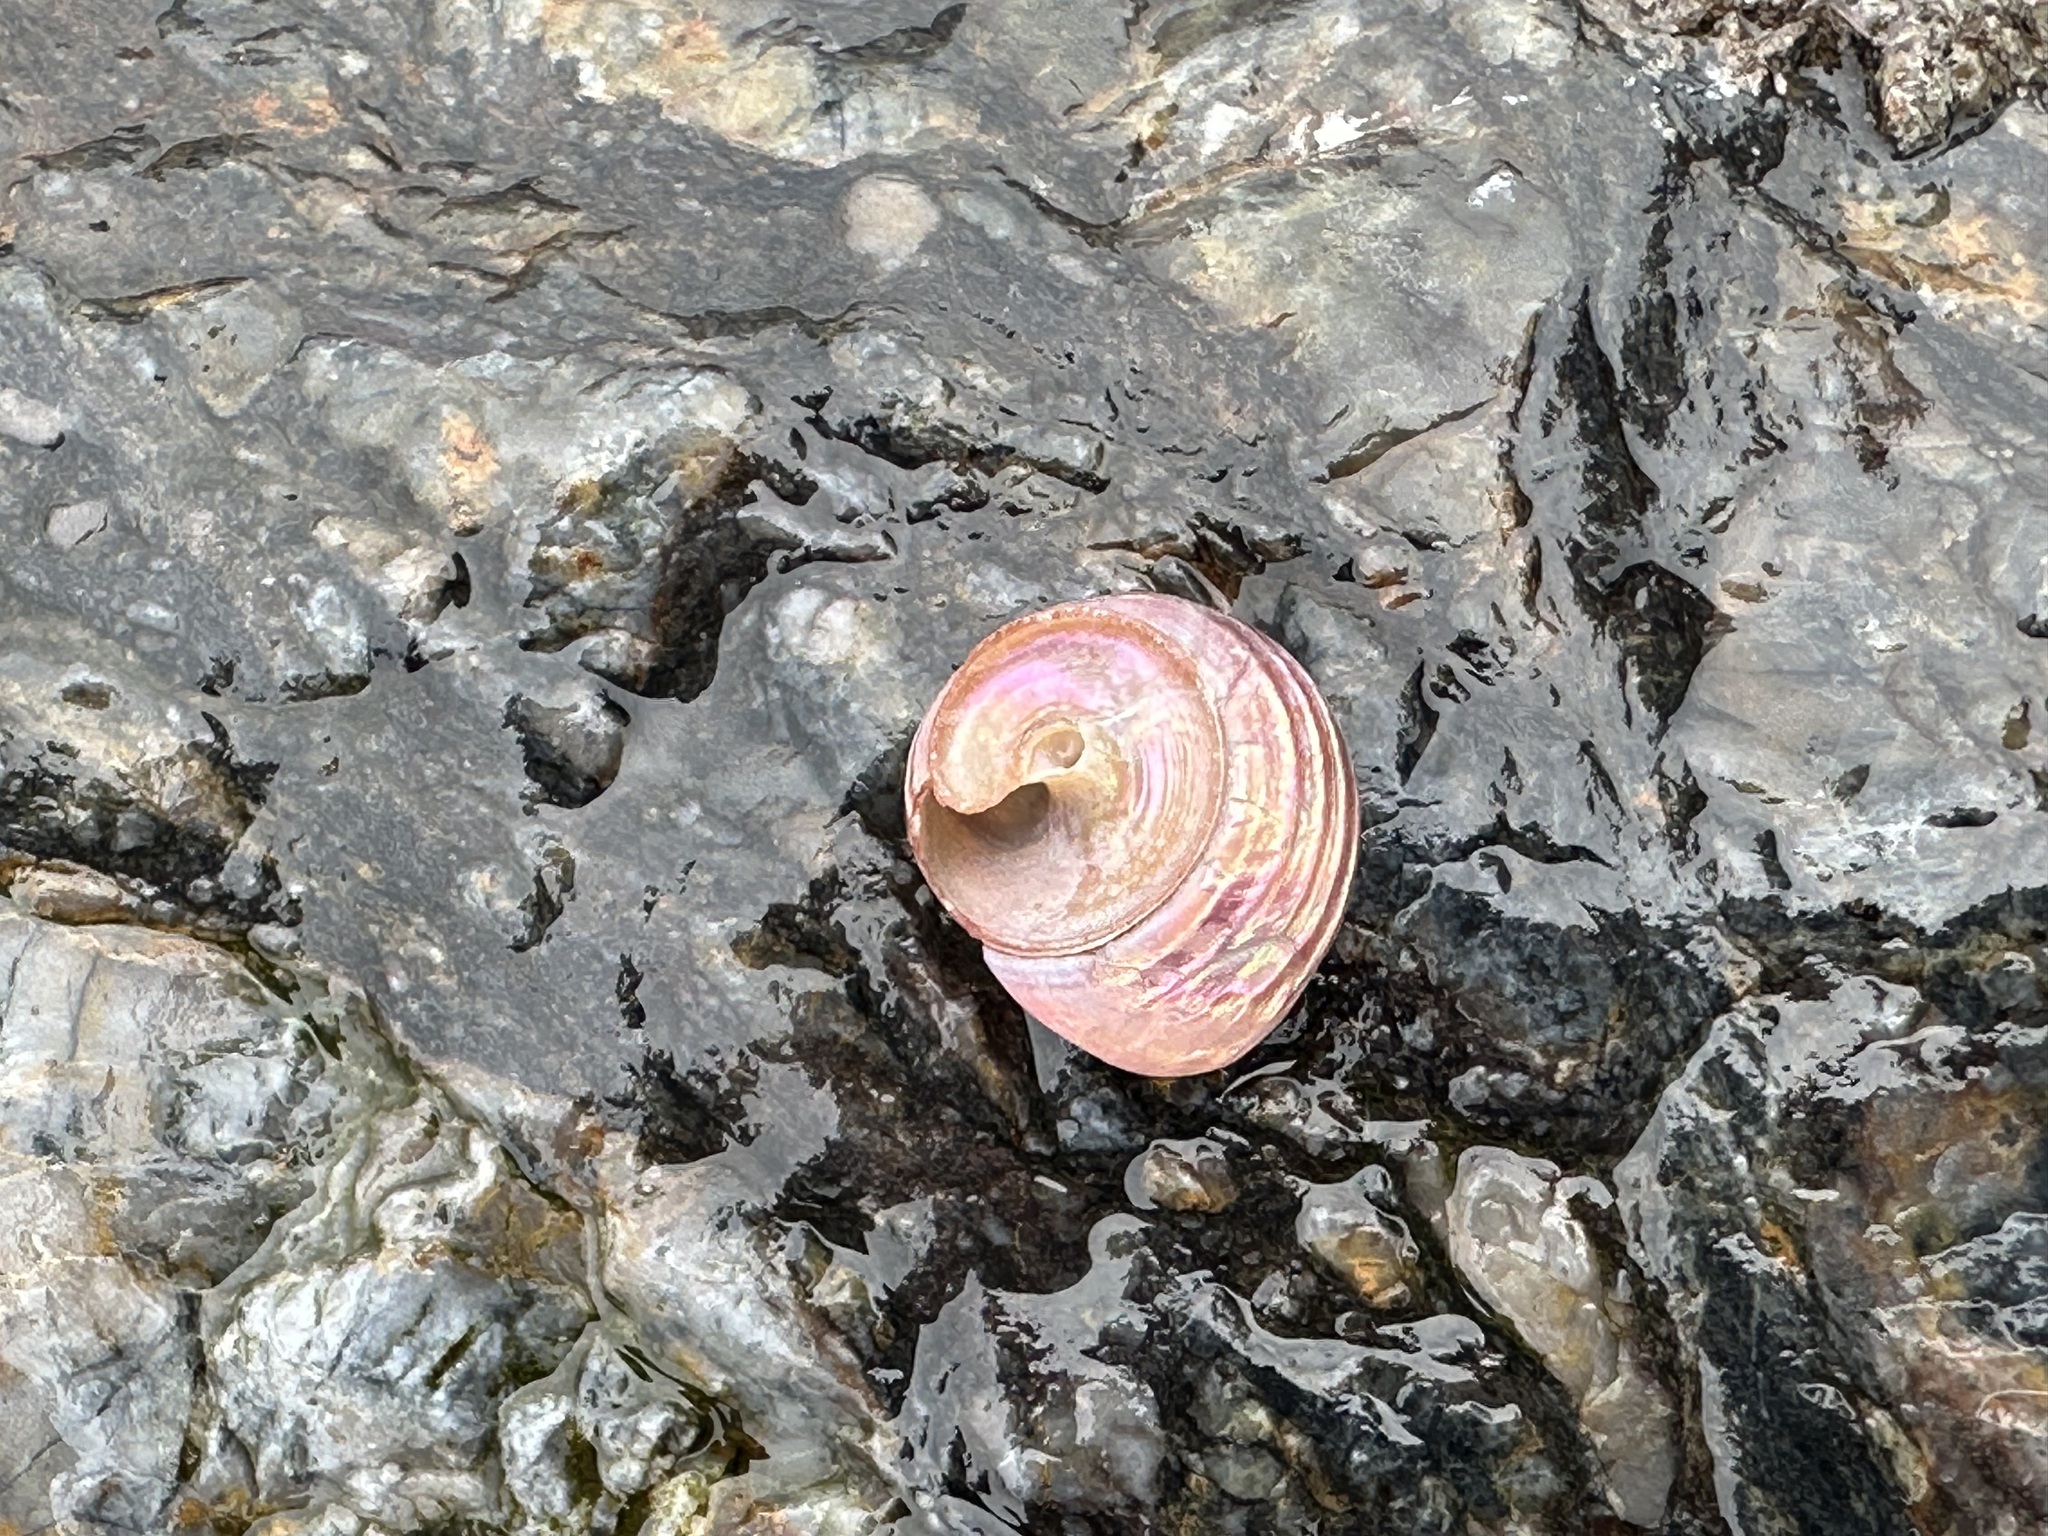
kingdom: Animalia
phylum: Mollusca
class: Gastropoda
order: Trochida
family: Calliostomatidae
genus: Calliostoma
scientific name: Calliostoma ligatum
